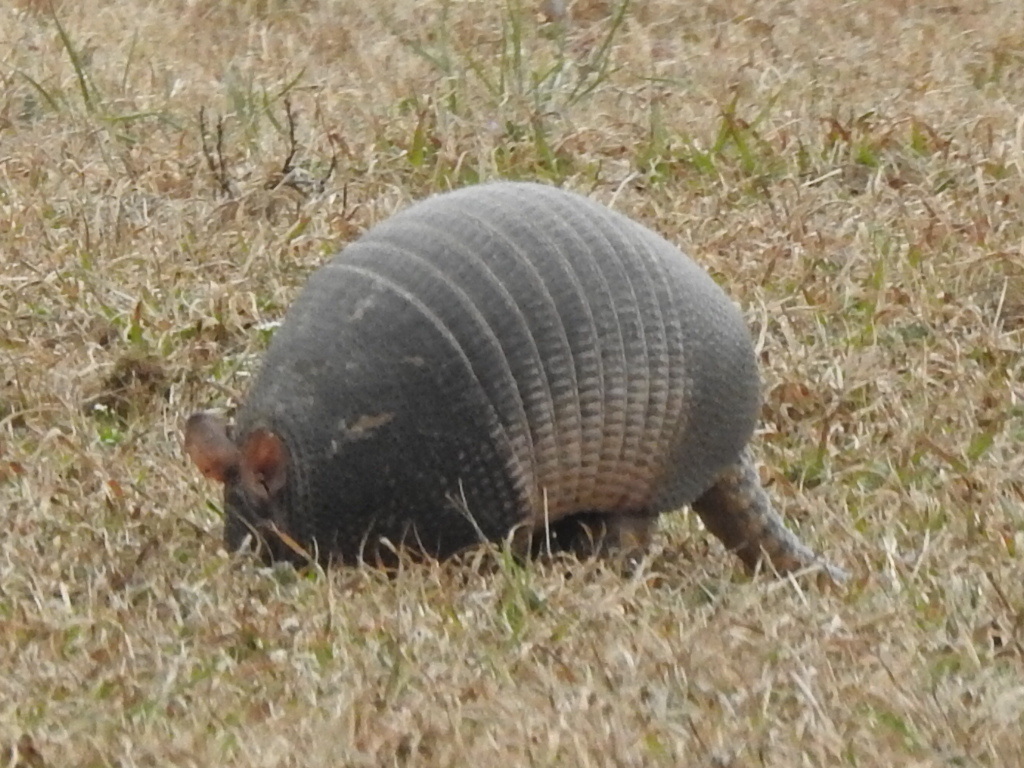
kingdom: Animalia
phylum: Chordata
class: Mammalia
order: Cingulata
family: Dasypodidae
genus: Dasypus
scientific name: Dasypus novemcinctus
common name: Nine-banded armadillo
